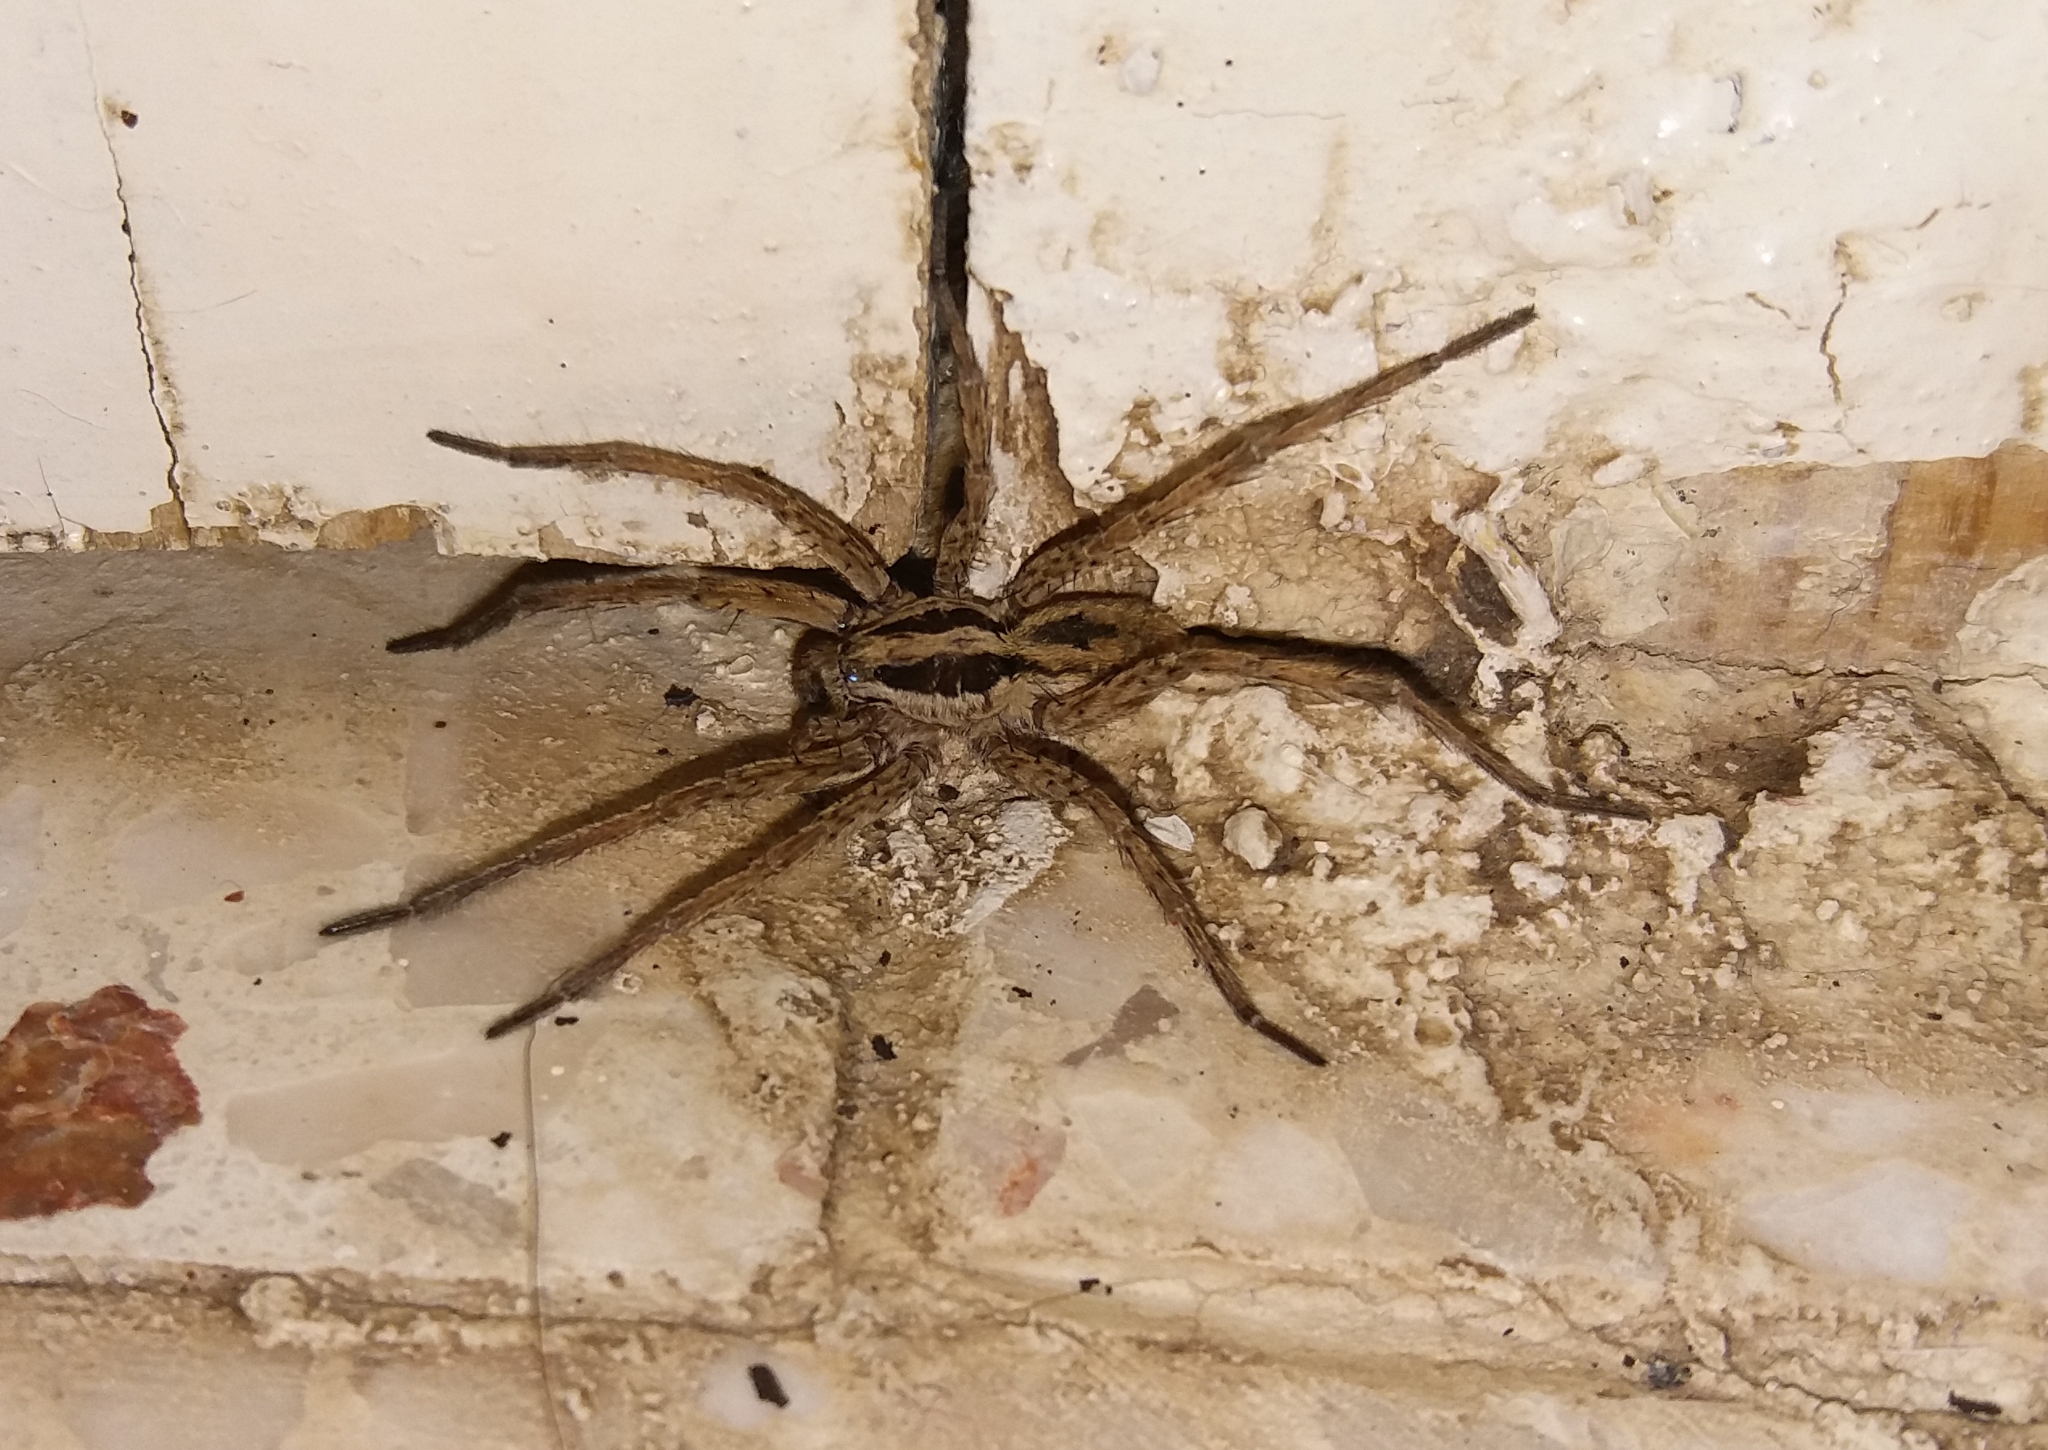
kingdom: Animalia
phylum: Arthropoda
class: Arachnida
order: Araneae
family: Lycosidae
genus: Hogna
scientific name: Hogna radiata
